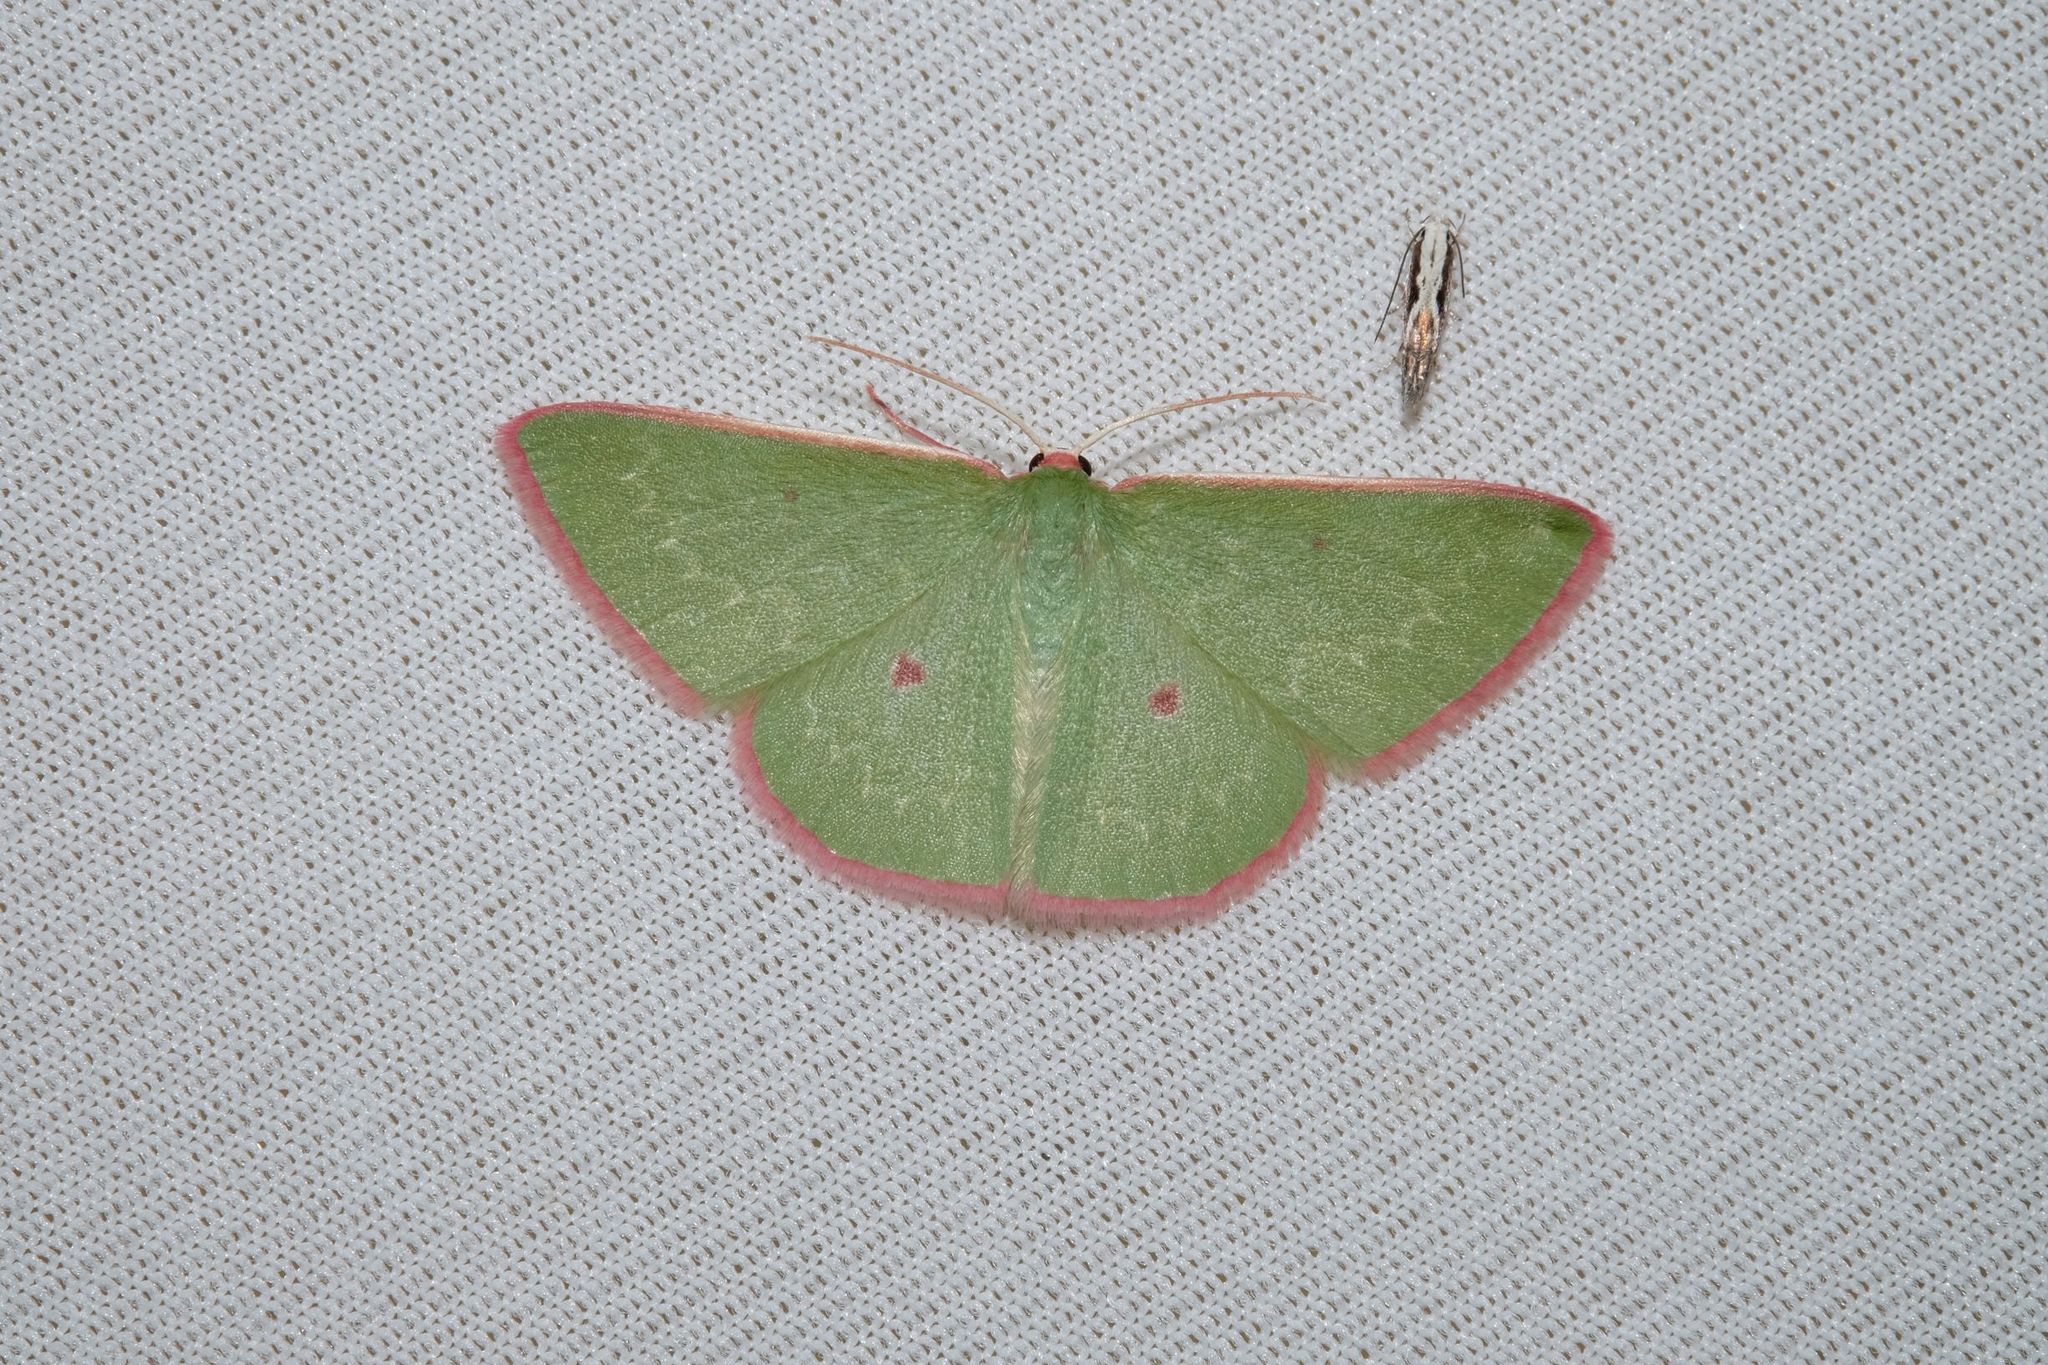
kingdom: Animalia
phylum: Arthropoda
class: Insecta
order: Lepidoptera
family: Geometridae
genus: Chlorocoma
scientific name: Chlorocoma cadmaria
